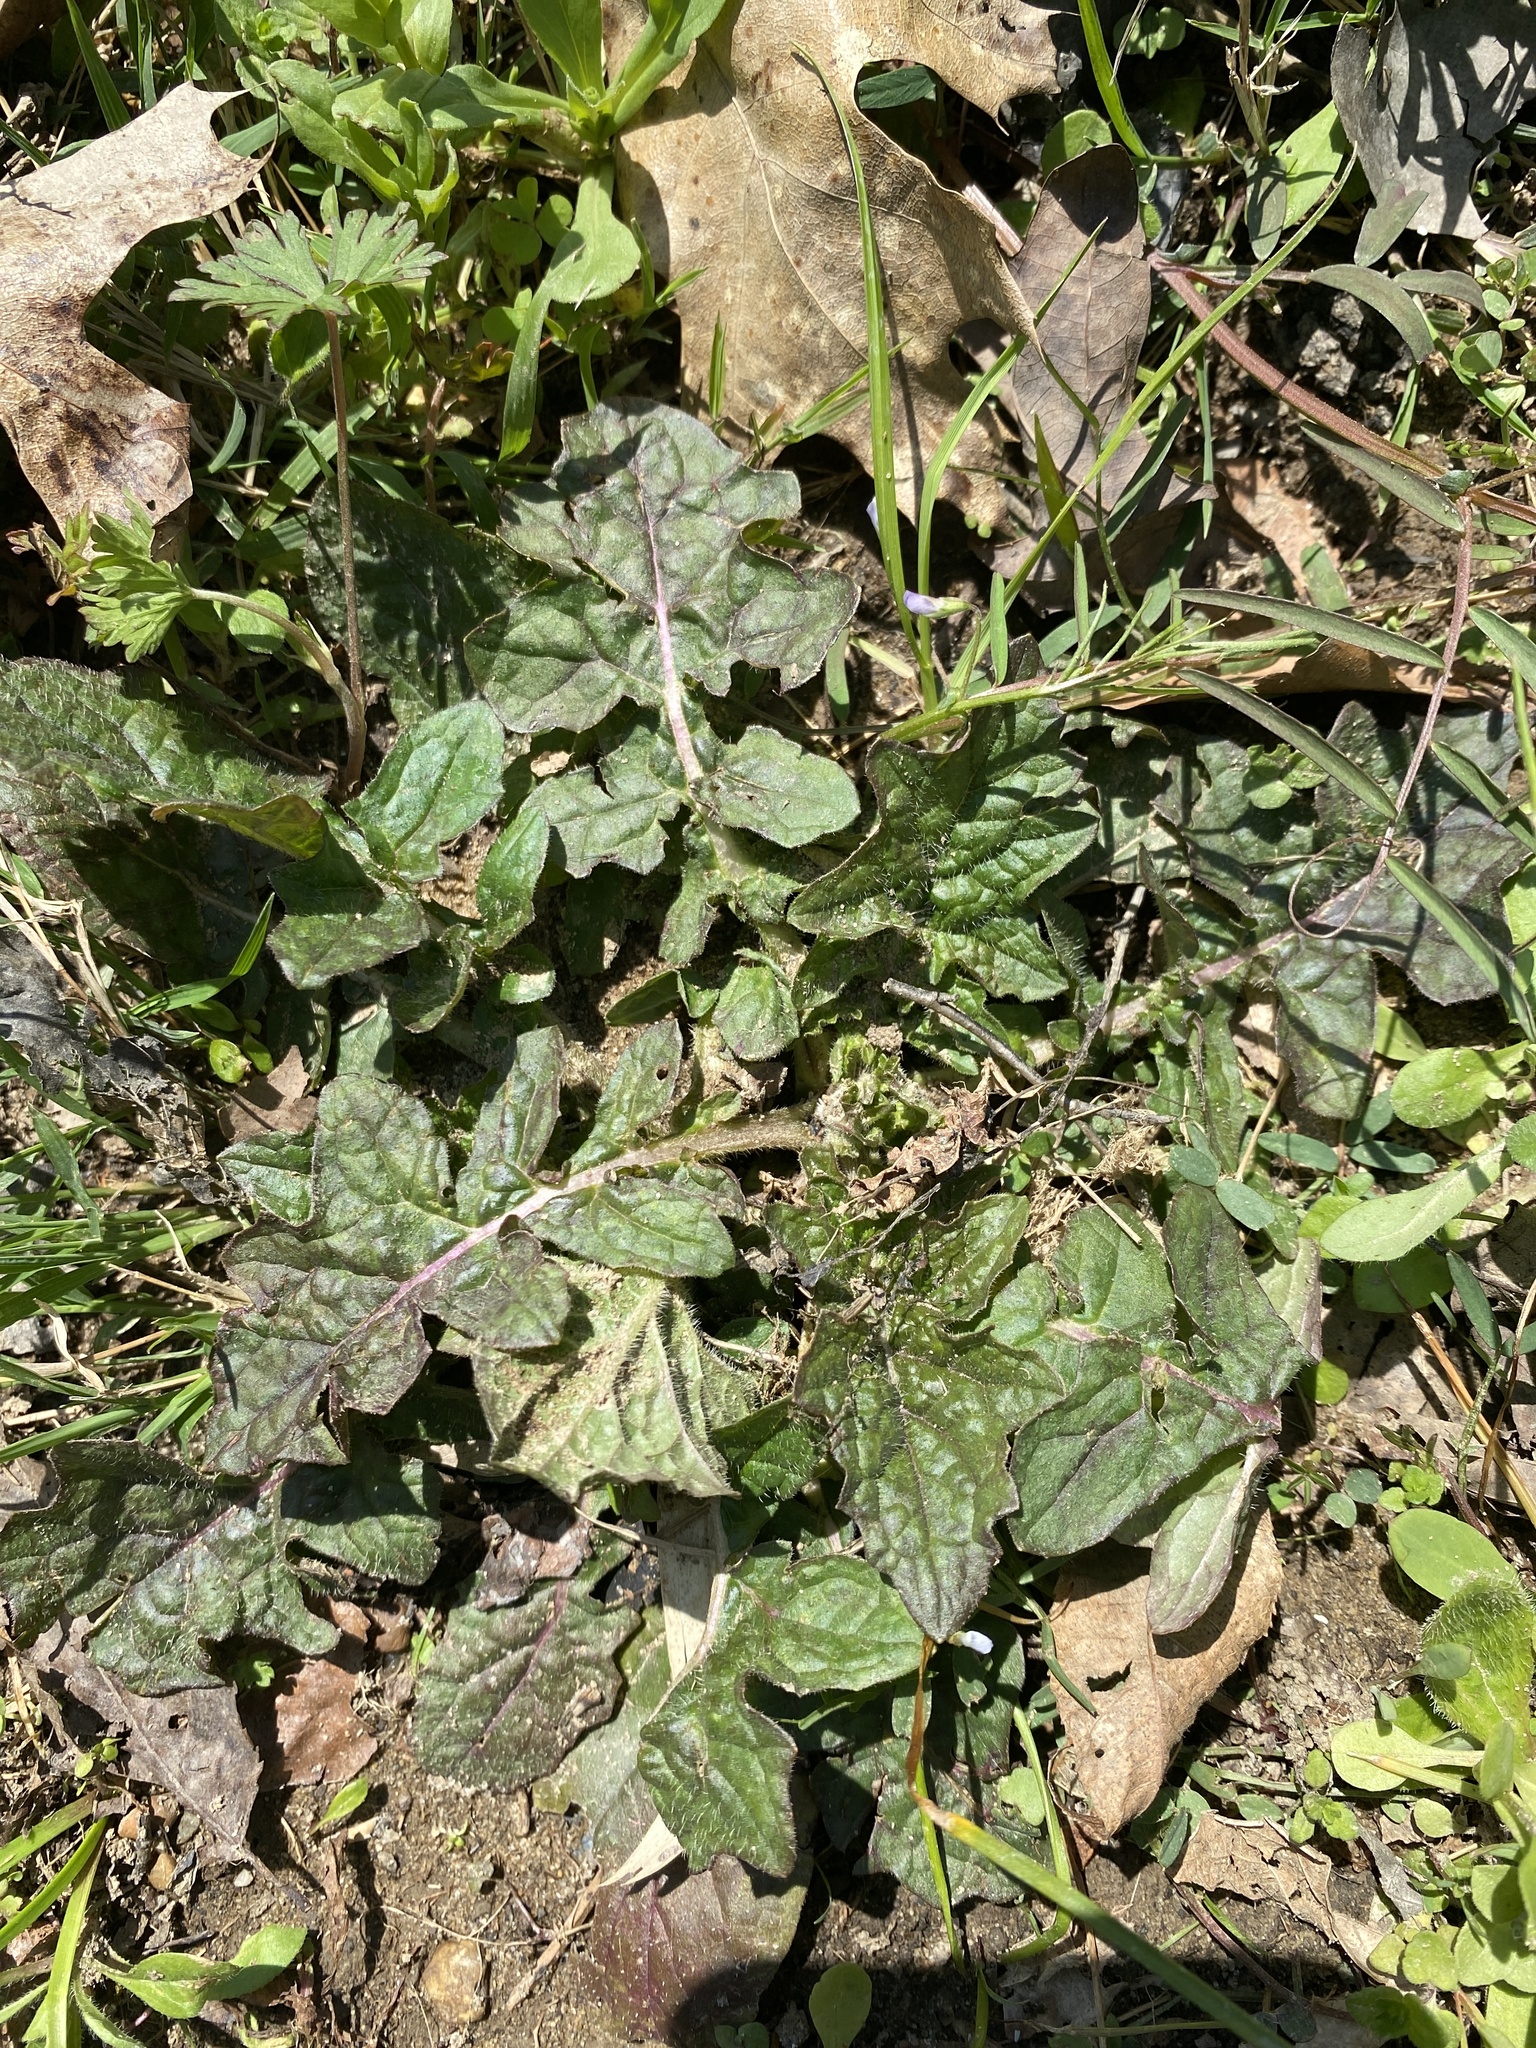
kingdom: Plantae
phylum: Tracheophyta
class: Magnoliopsida
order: Lamiales
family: Lamiaceae
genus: Salvia
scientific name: Salvia lyrata
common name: Cancerweed
